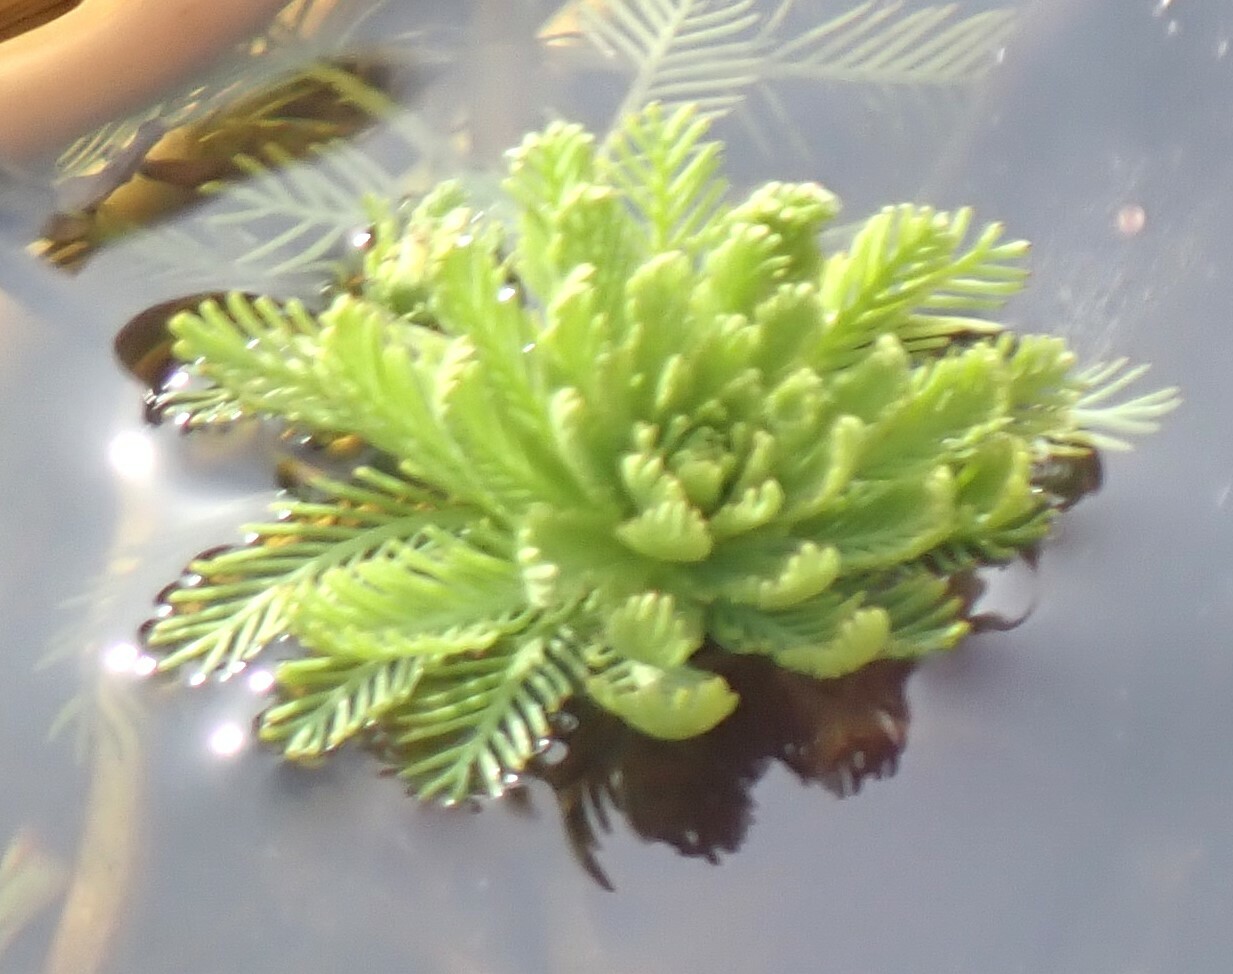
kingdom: Plantae
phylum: Tracheophyta
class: Magnoliopsida
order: Saxifragales
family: Haloragaceae
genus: Myriophyllum
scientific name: Myriophyllum aquaticum
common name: Parrot's feather
